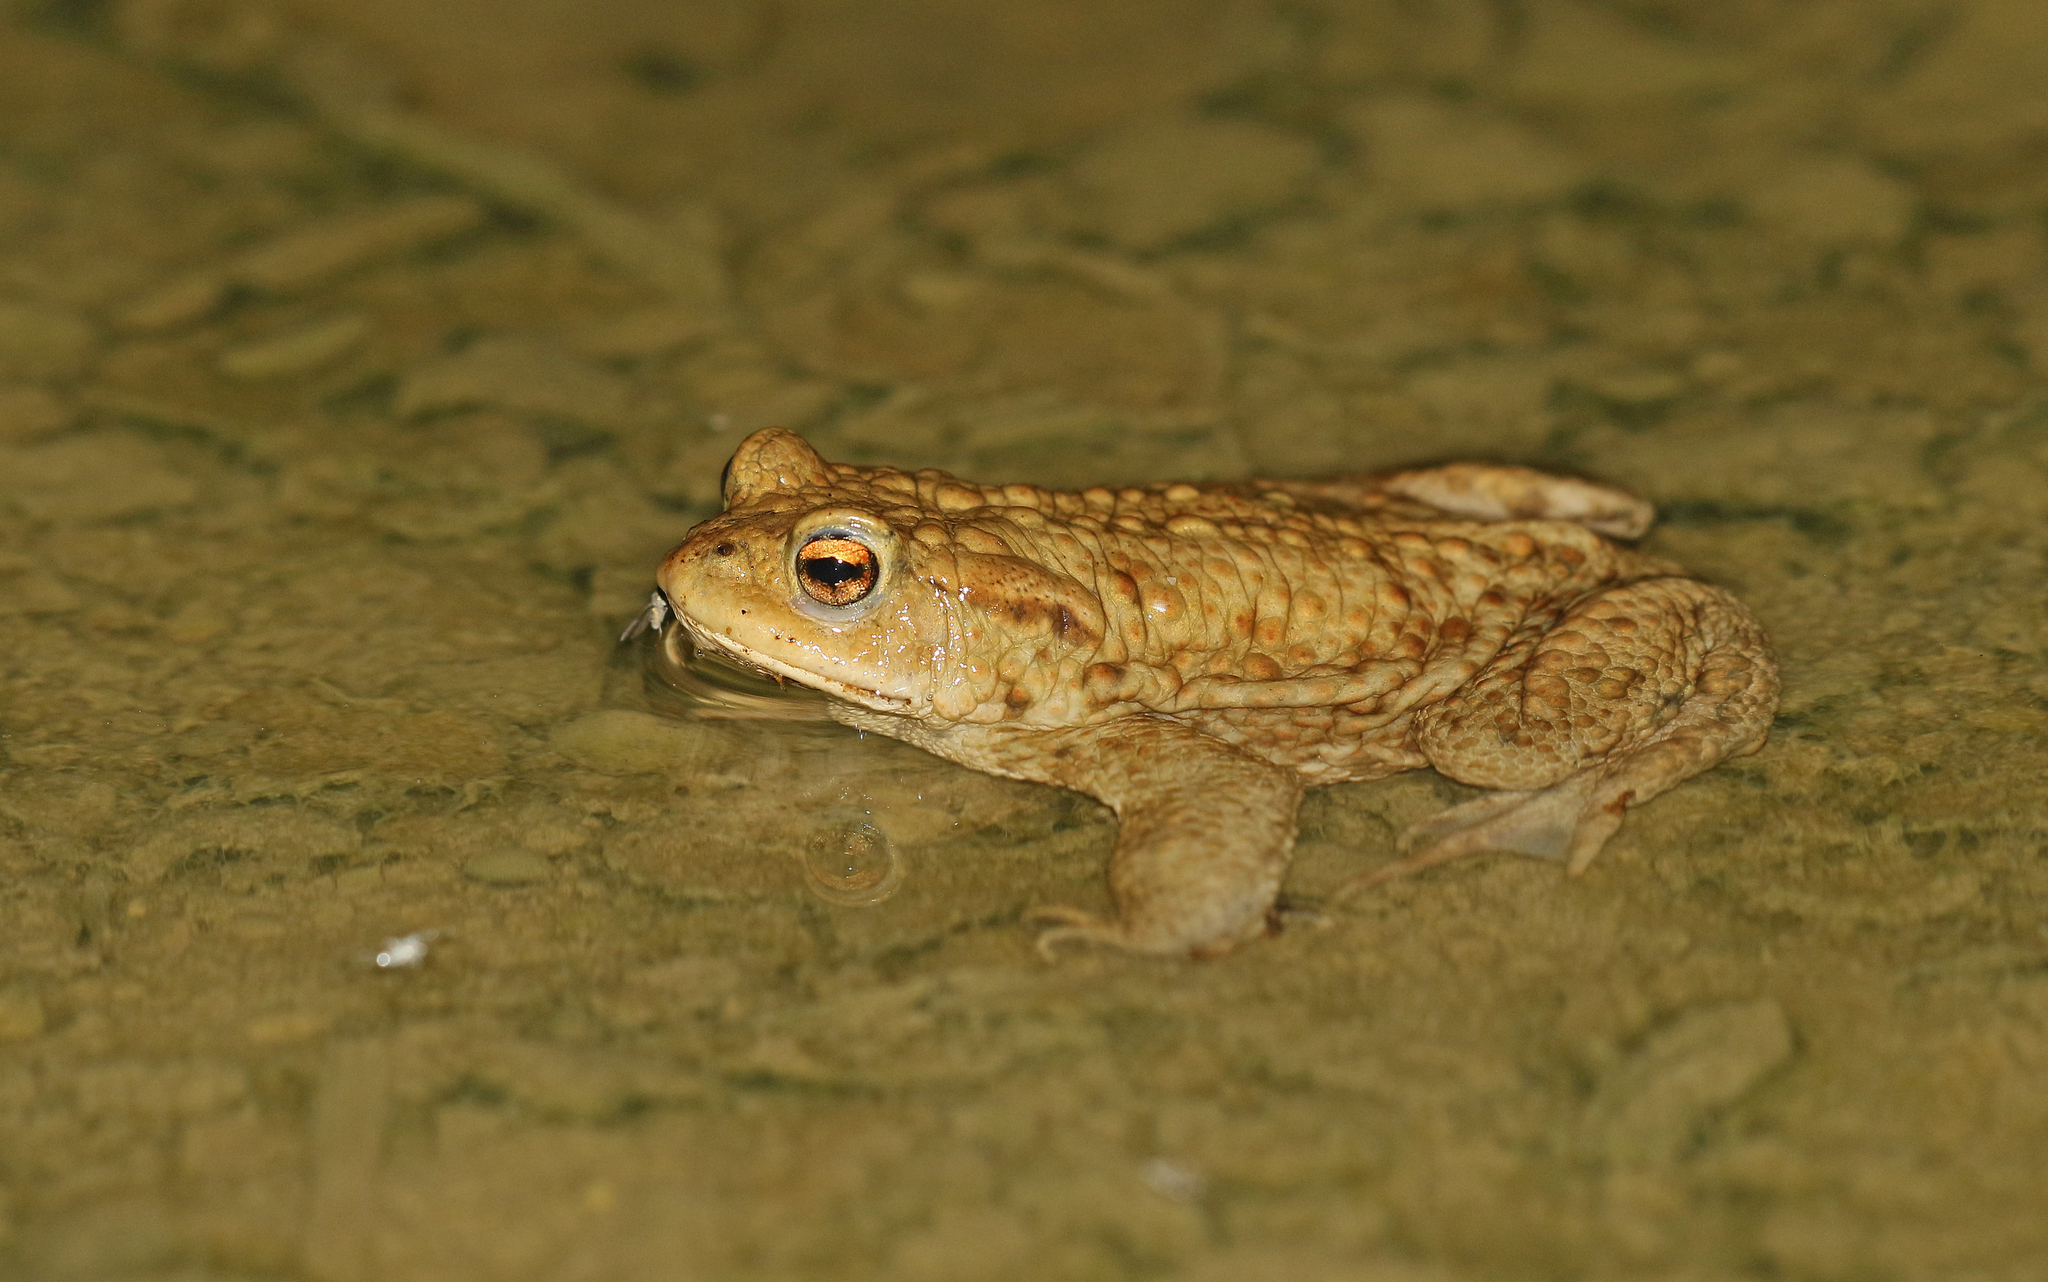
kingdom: Animalia
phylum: Chordata
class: Amphibia
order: Anura
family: Bufonidae
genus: Bufo
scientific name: Bufo bufo
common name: Common toad
